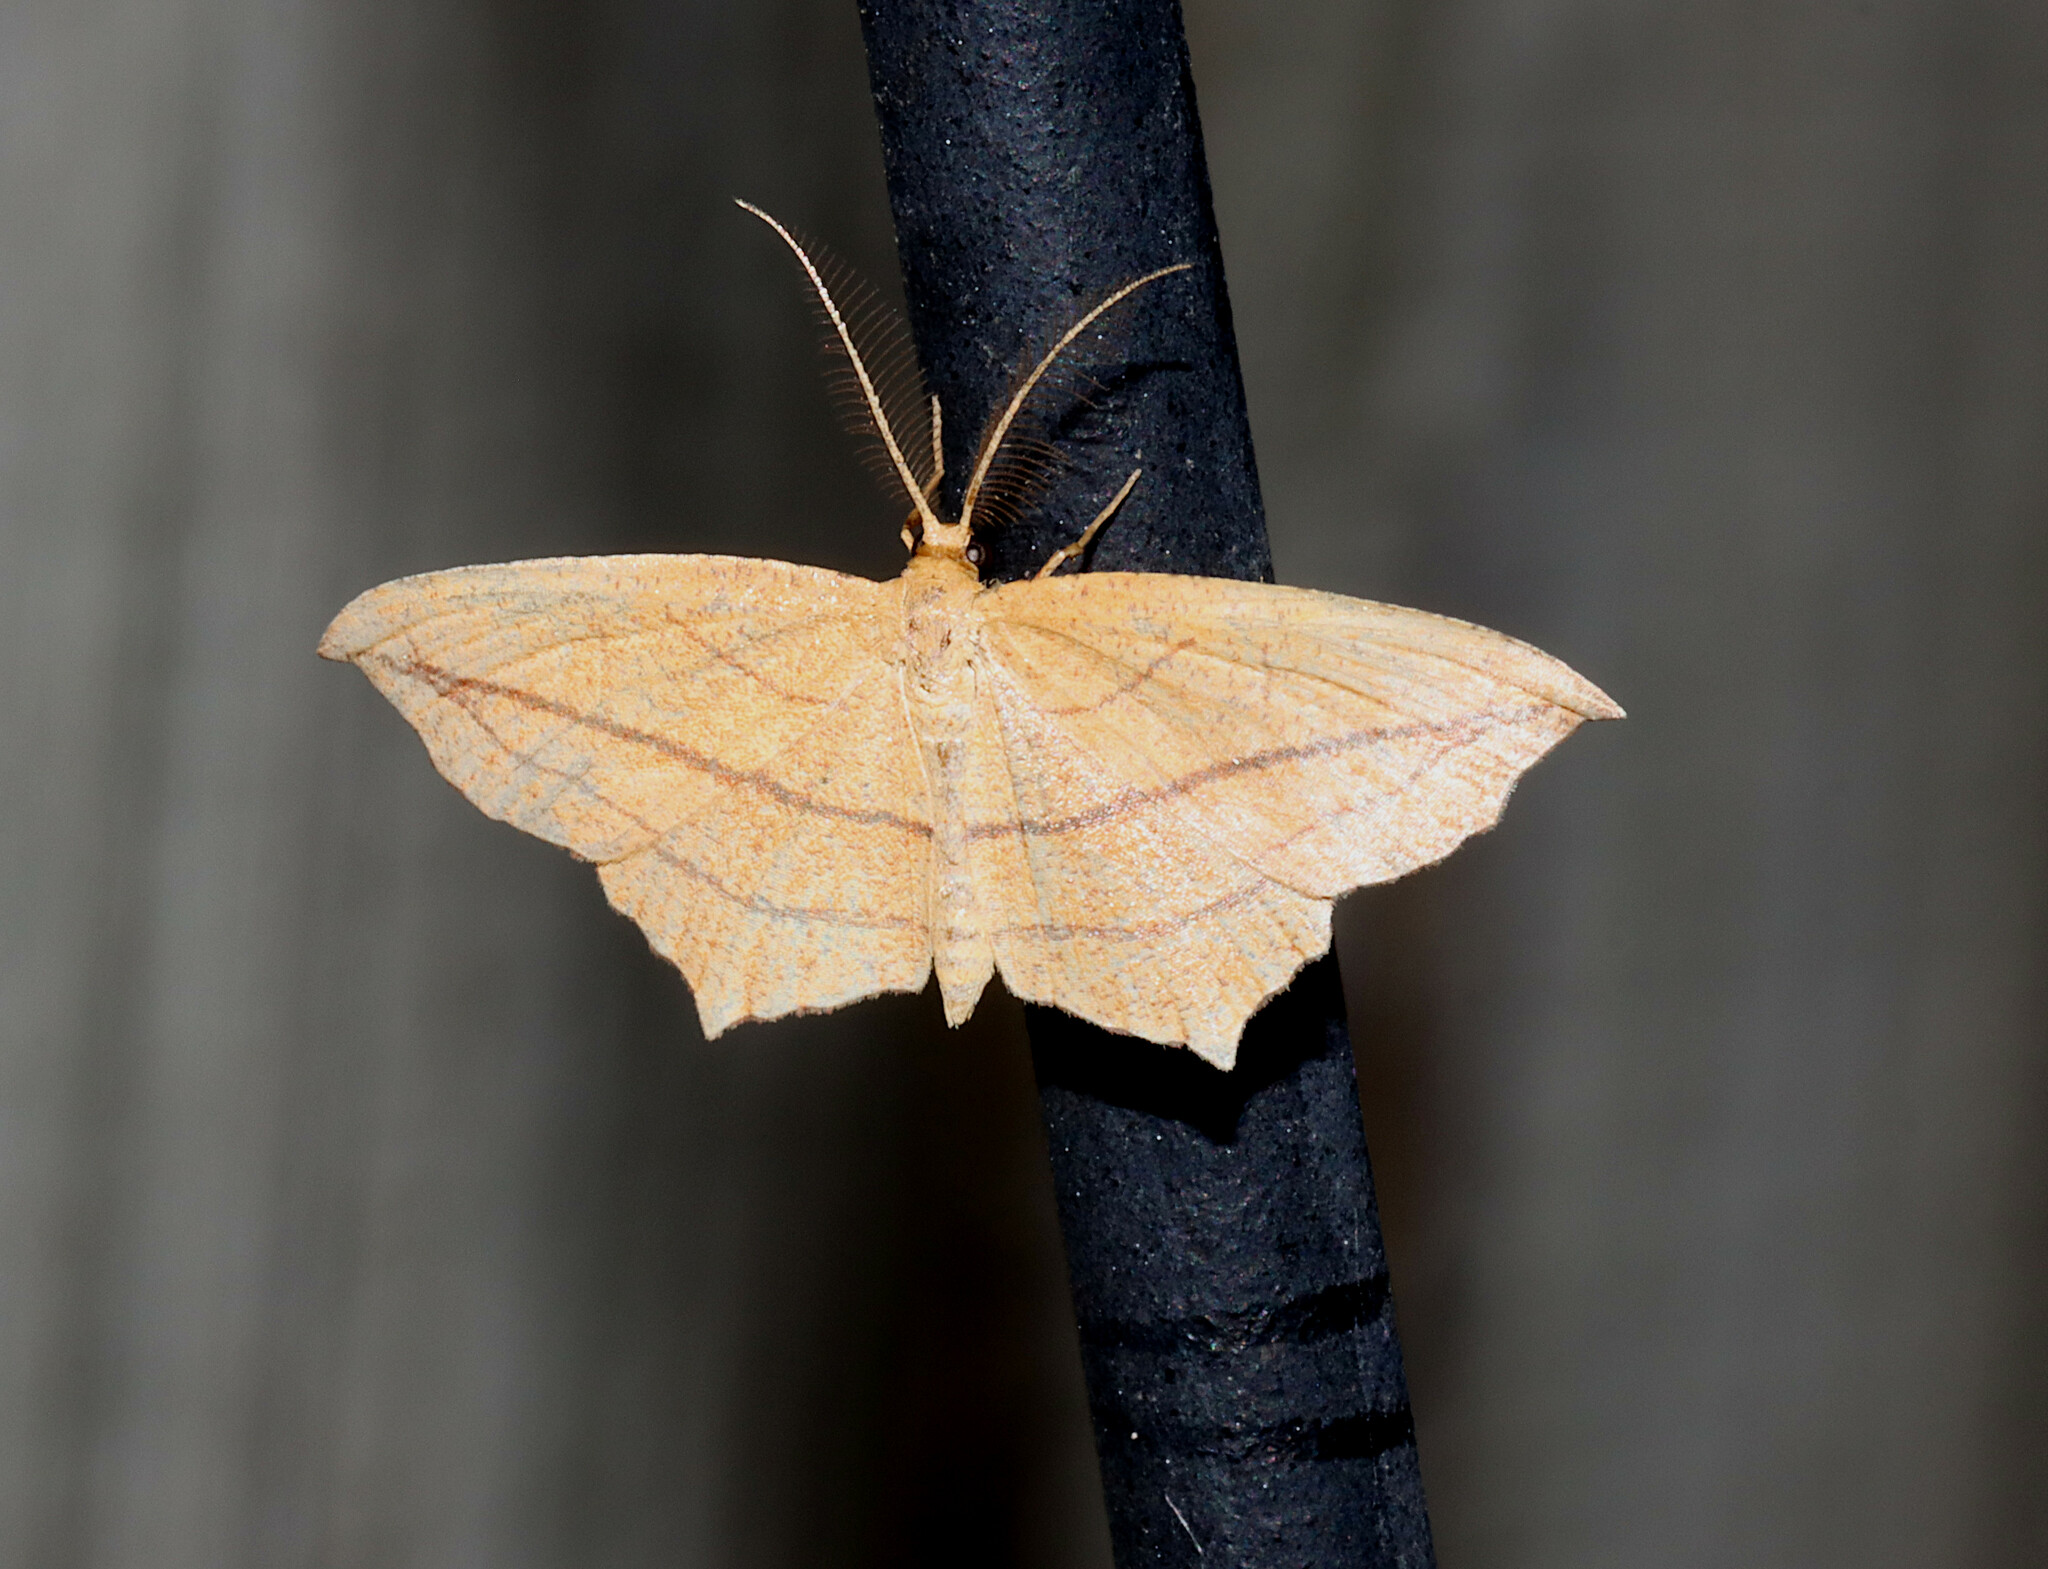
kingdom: Animalia
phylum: Arthropoda
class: Insecta
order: Lepidoptera
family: Geometridae
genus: Timandra
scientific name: Timandra amaturaria
